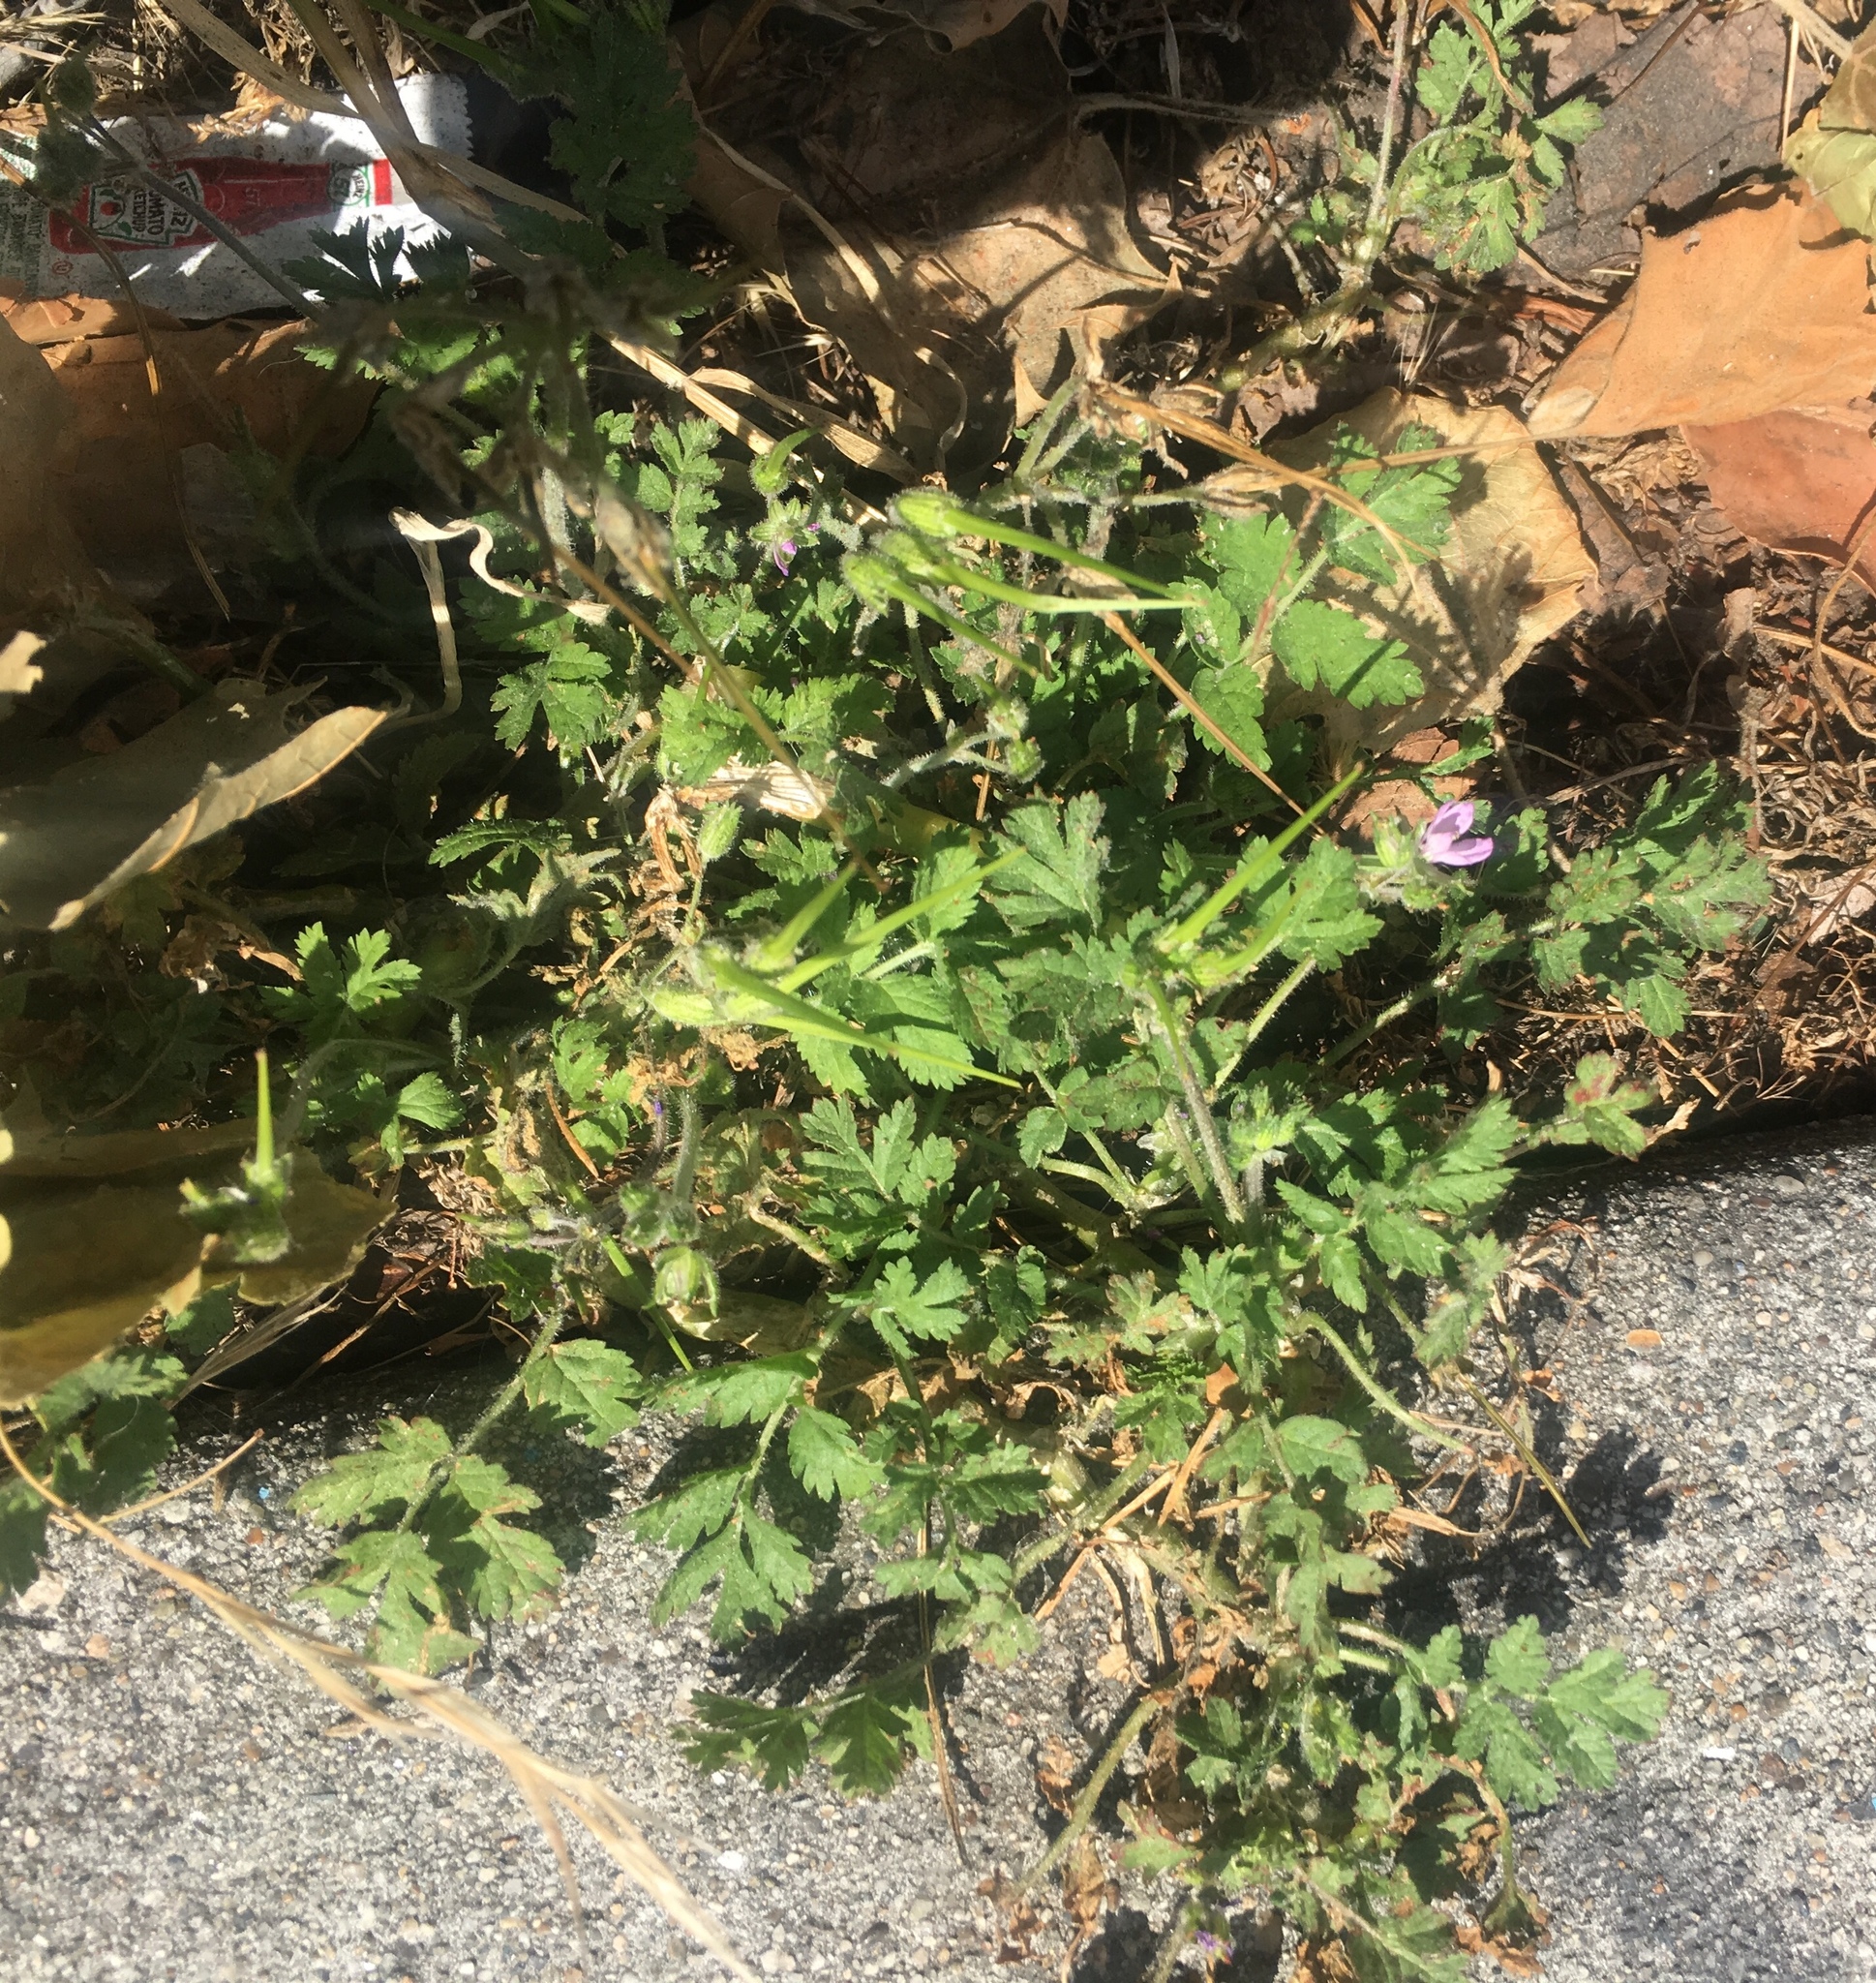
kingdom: Plantae
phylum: Tracheophyta
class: Magnoliopsida
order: Geraniales
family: Geraniaceae
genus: Erodium
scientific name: Erodium moschatum
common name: Musk stork's-bill
